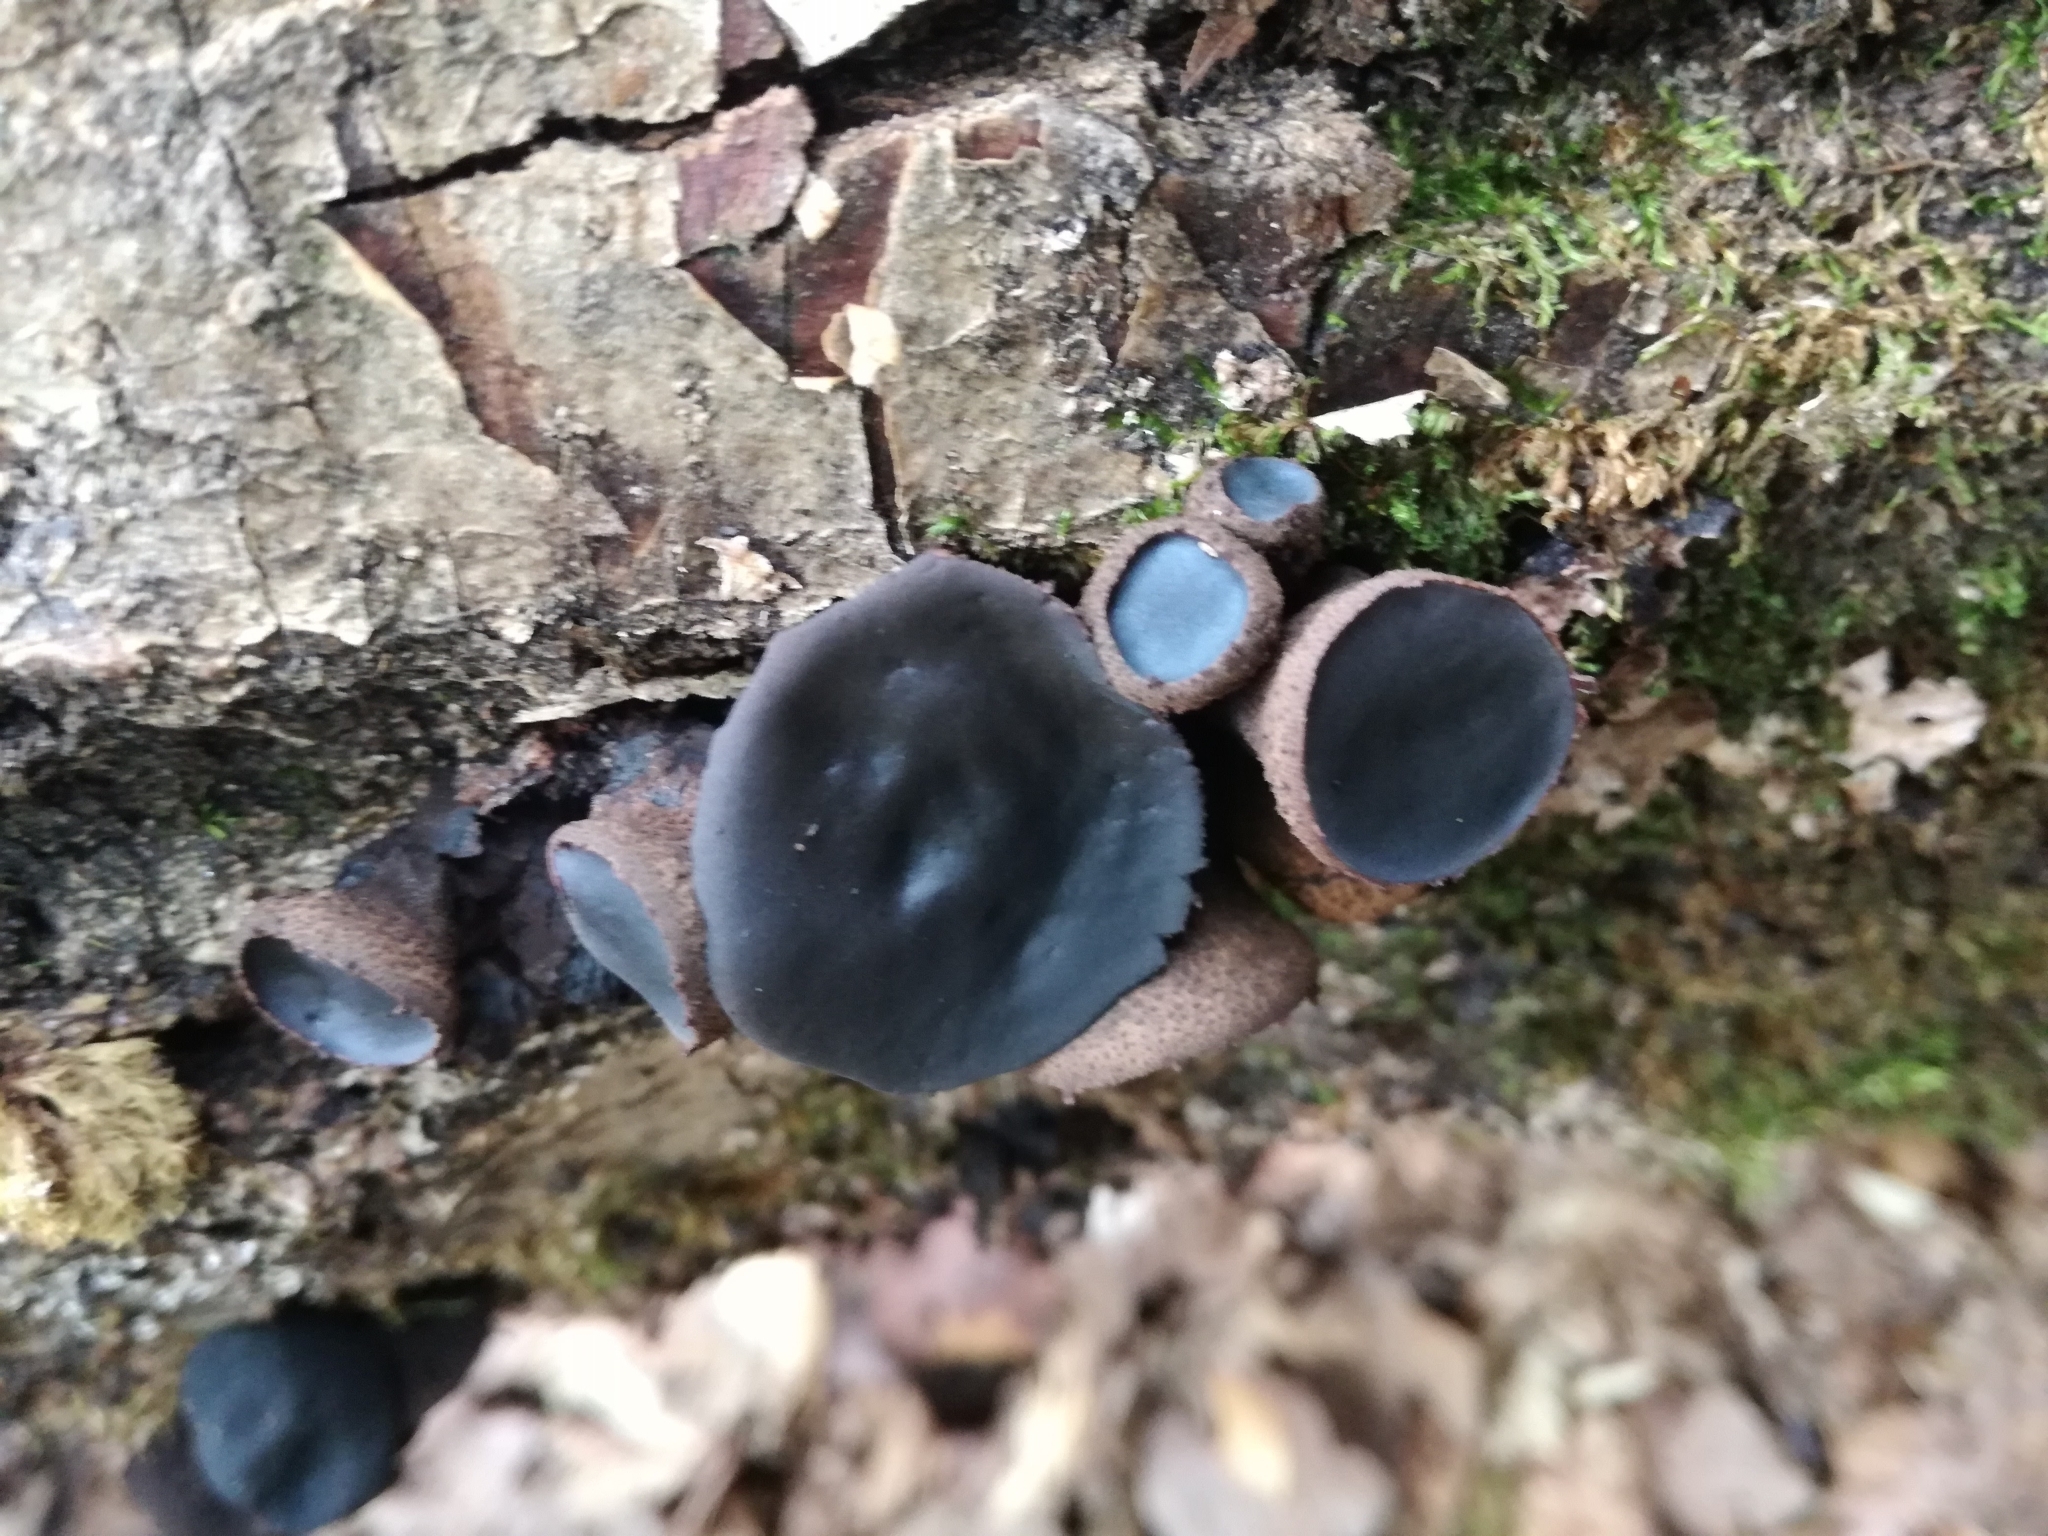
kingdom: Fungi
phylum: Ascomycota
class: Leotiomycetes
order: Phacidiales
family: Phacidiaceae
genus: Bulgaria
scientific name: Bulgaria inquinans
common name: Black bulgar
